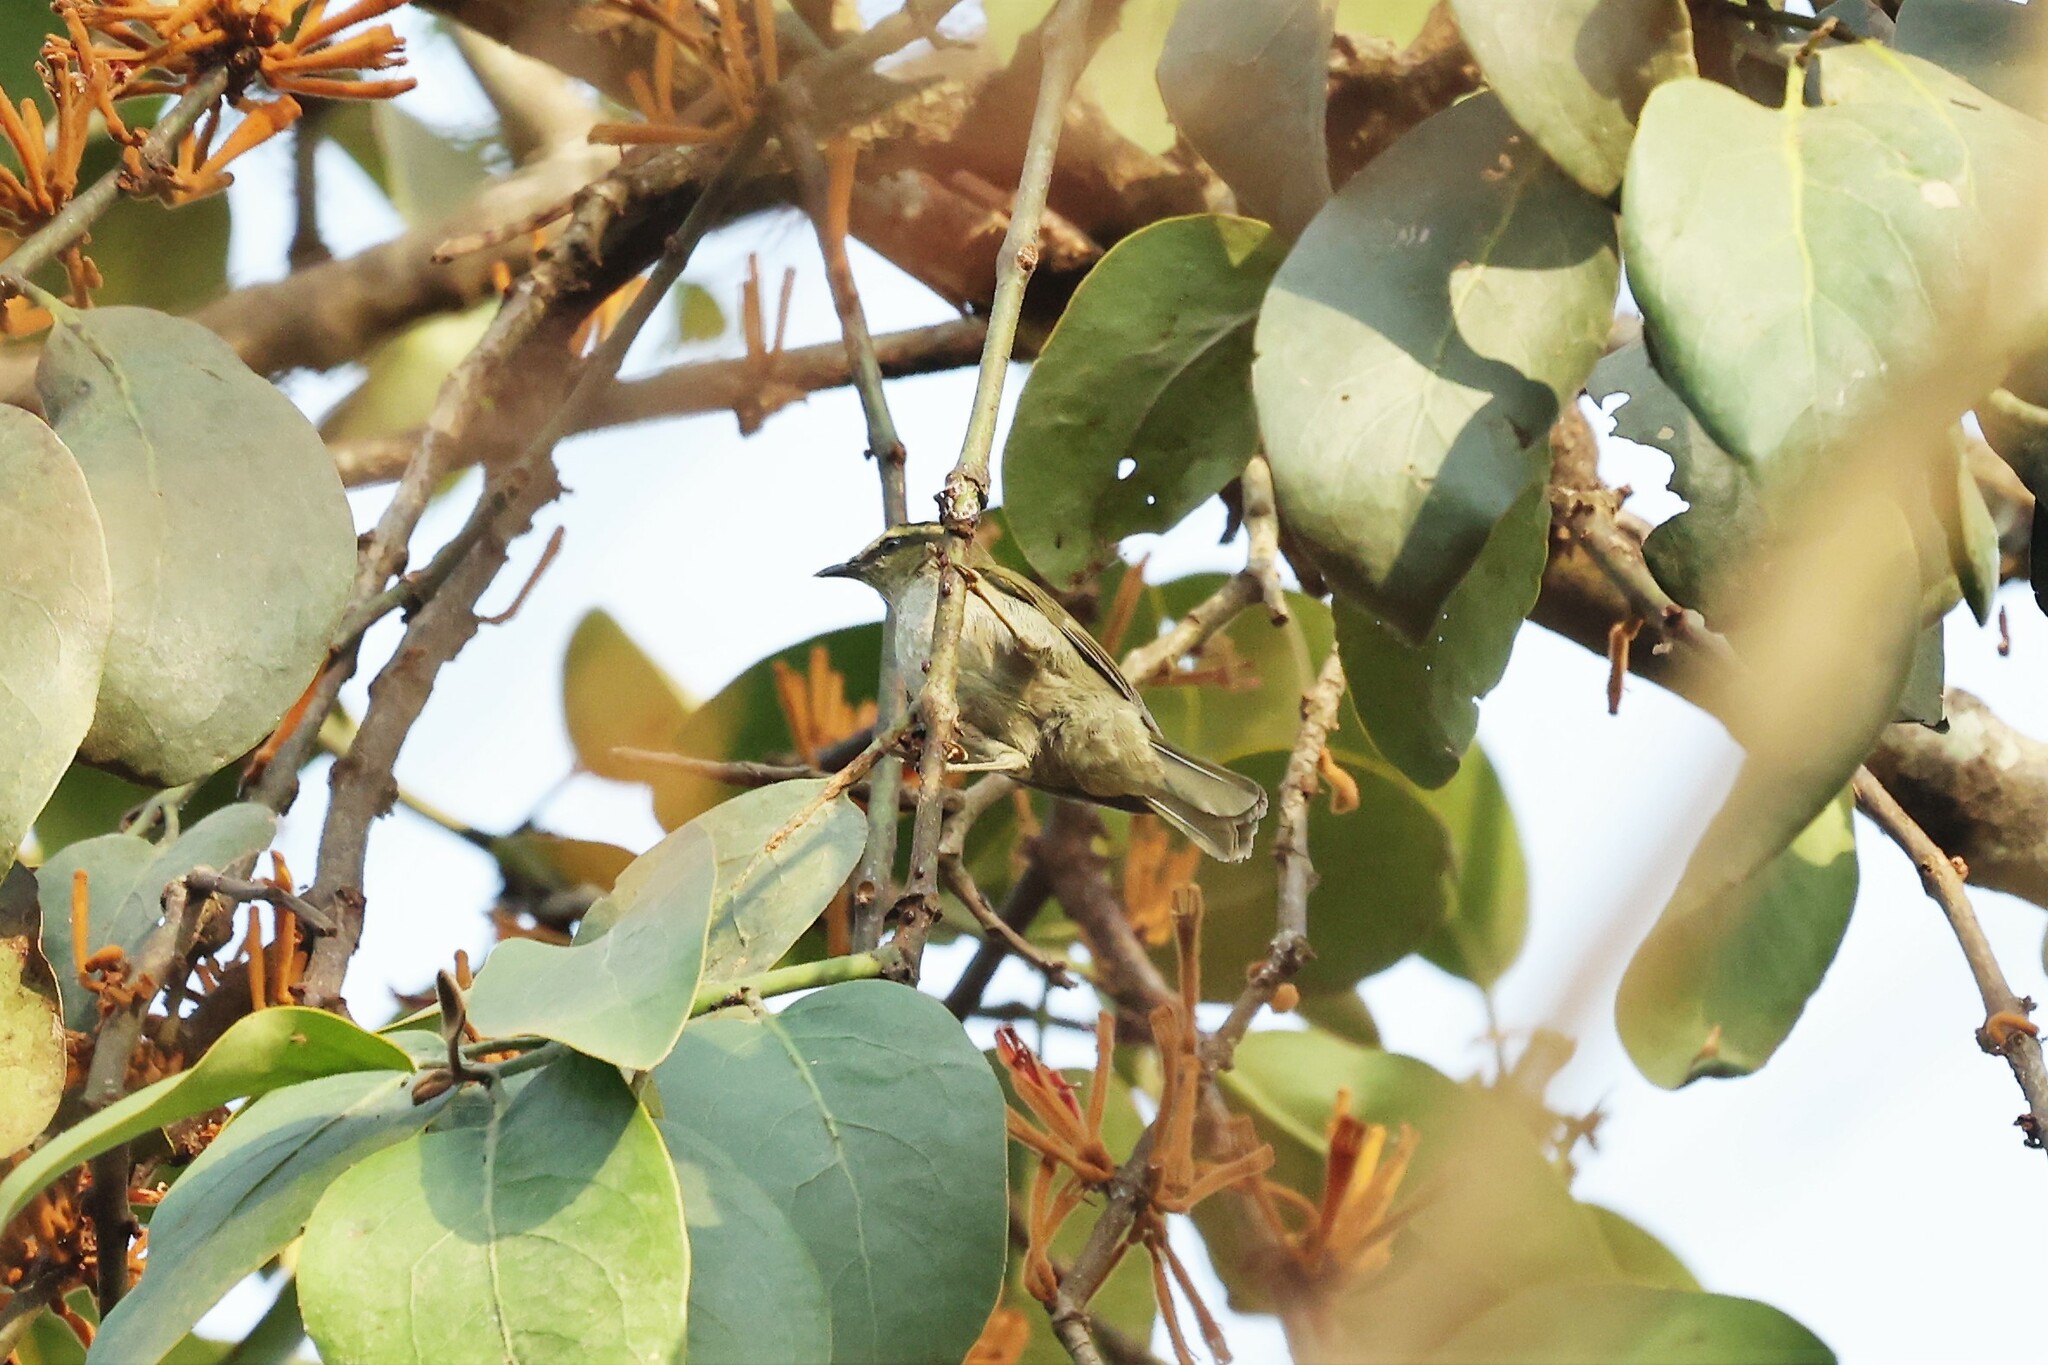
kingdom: Animalia
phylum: Chordata
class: Aves
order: Passeriformes
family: Cettiidae
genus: Hylia
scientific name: Hylia prasina
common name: Green hylia
